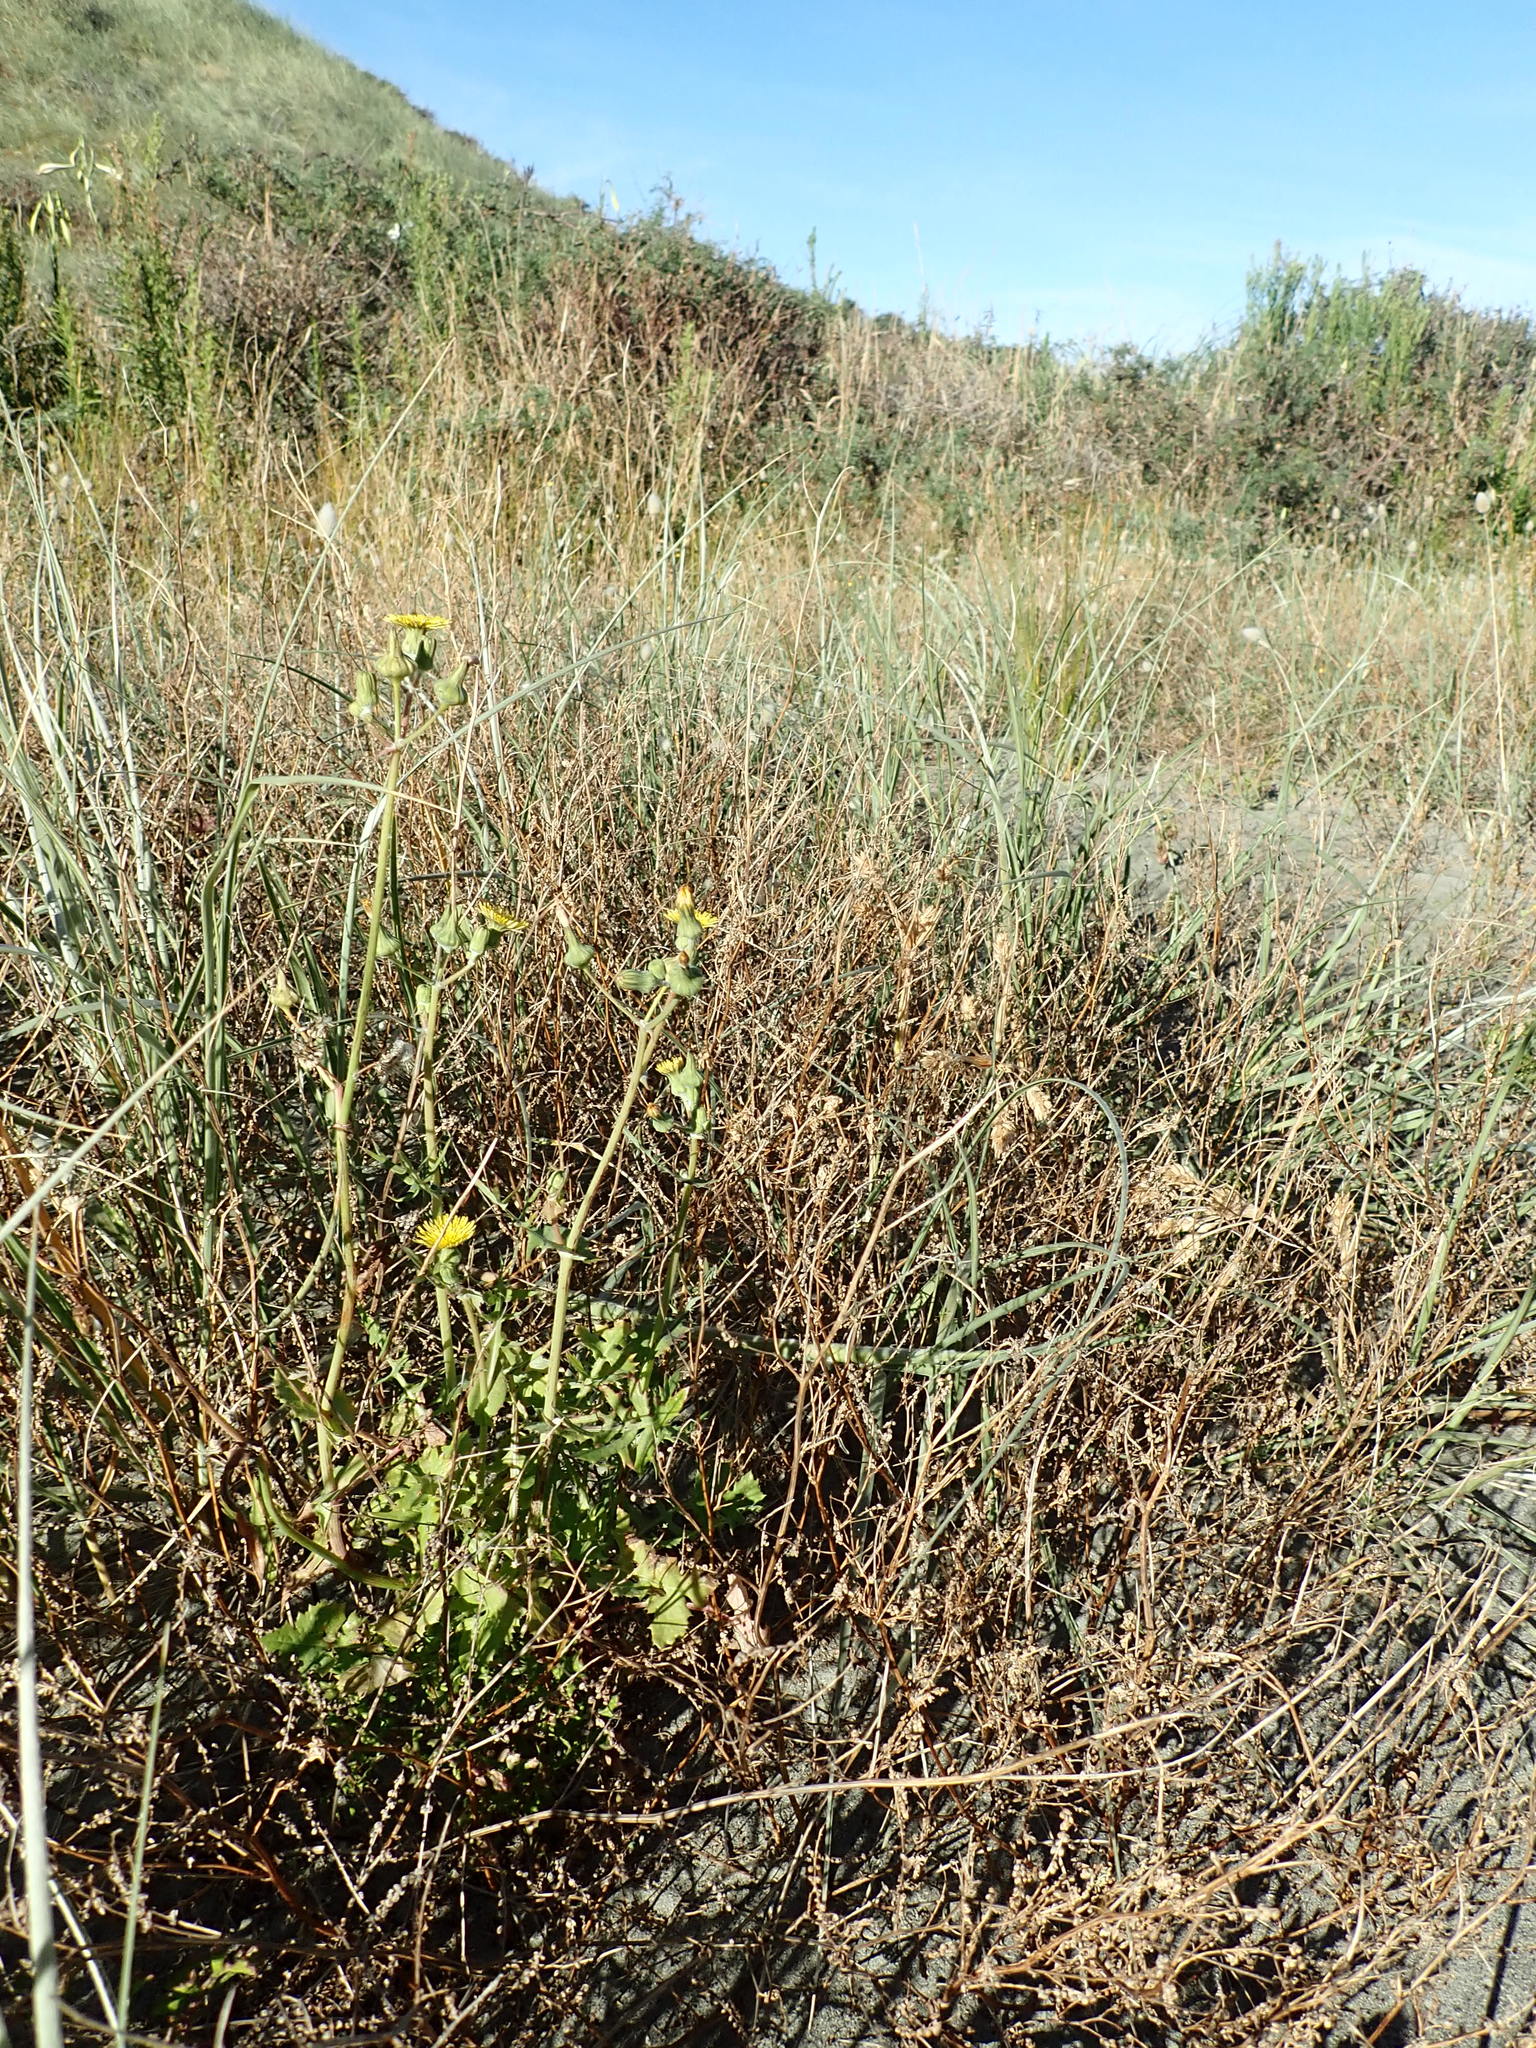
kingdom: Plantae
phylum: Tracheophyta
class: Magnoliopsida
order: Asterales
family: Asteraceae
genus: Sonchus
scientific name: Sonchus oleraceus
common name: Common sowthistle
